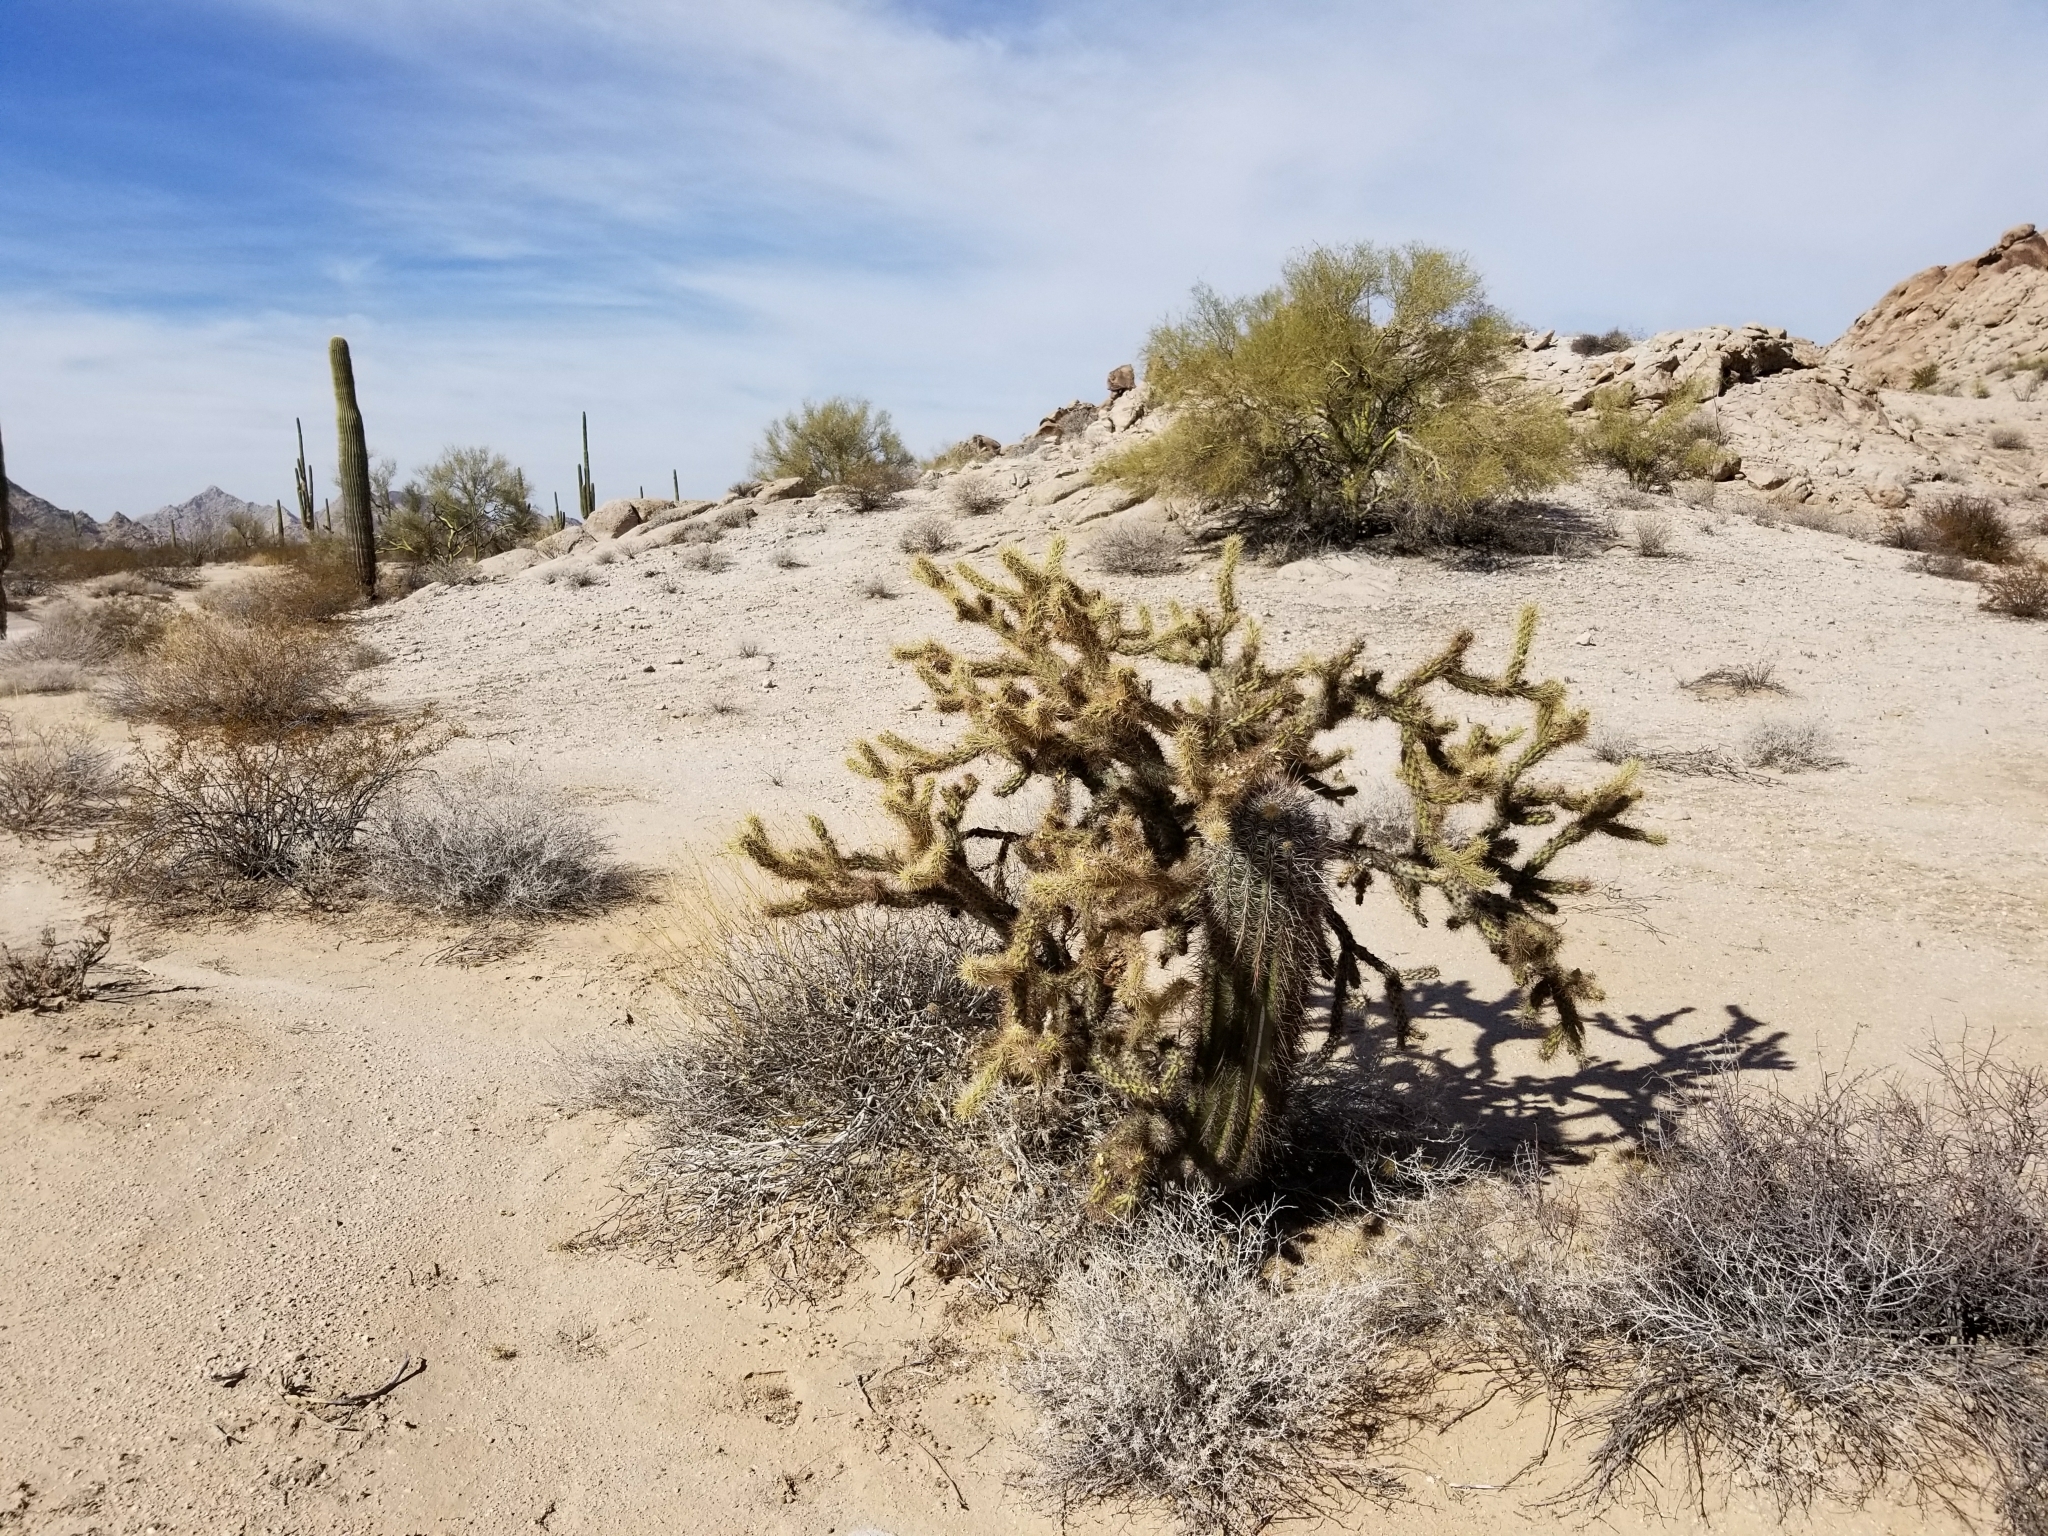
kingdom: Plantae
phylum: Tracheophyta
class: Magnoliopsida
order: Caryophyllales
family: Cactaceae
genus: Cylindropuntia
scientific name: Cylindropuntia acanthocarpa
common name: Buckhorn cholla
